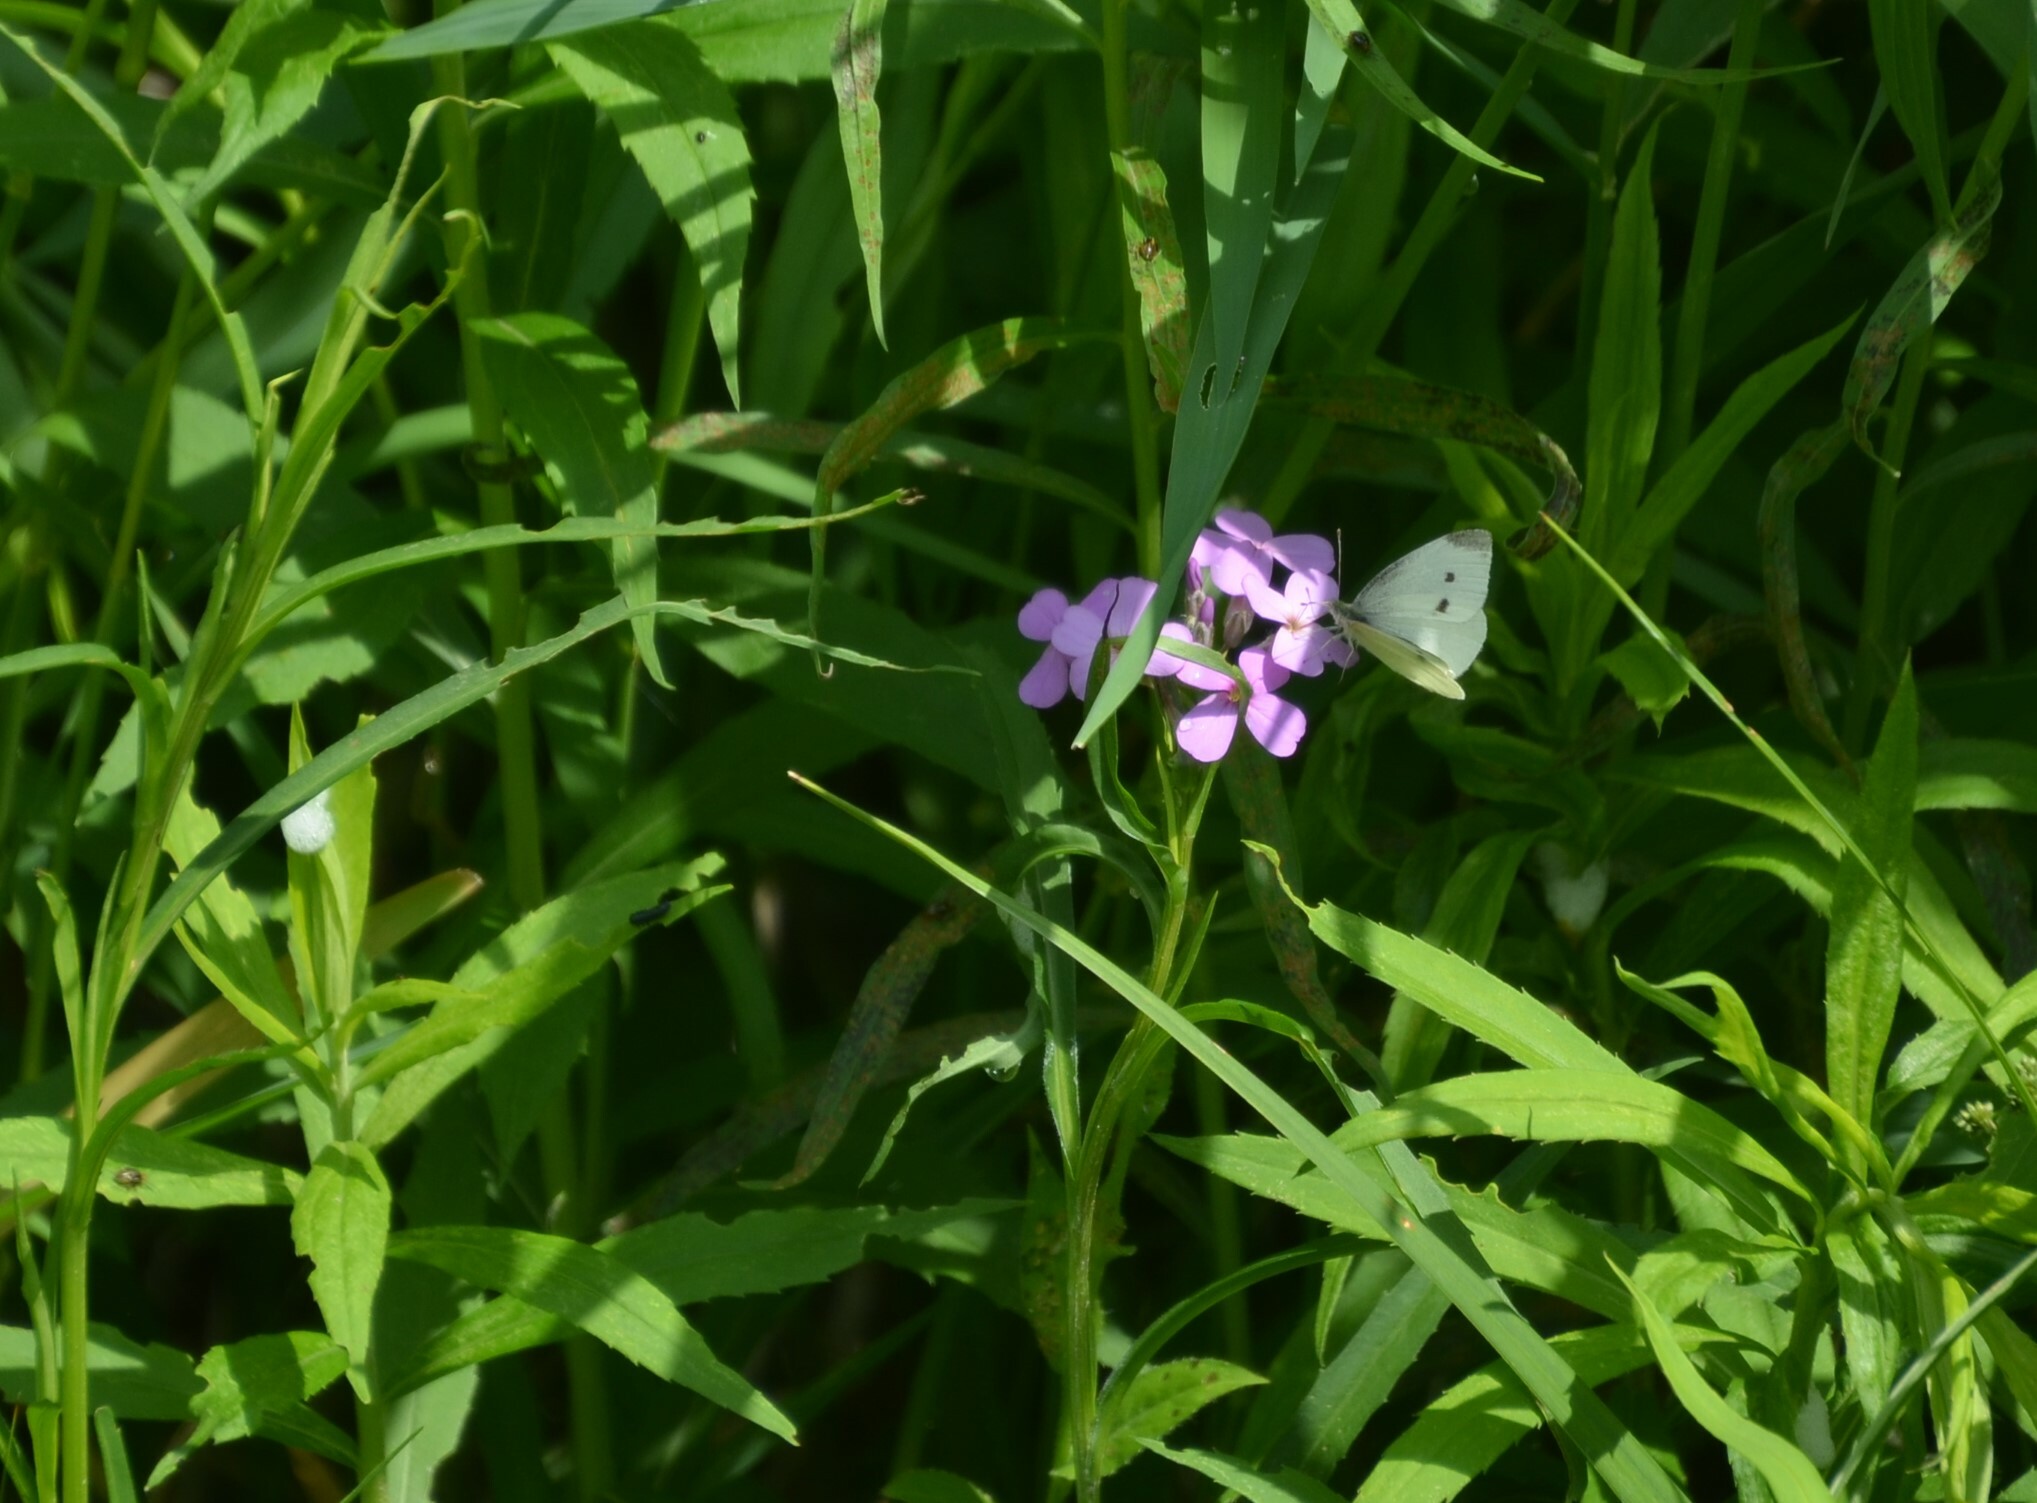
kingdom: Animalia
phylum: Arthropoda
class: Insecta
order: Lepidoptera
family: Pieridae
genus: Pieris
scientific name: Pieris rapae
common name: Small white
